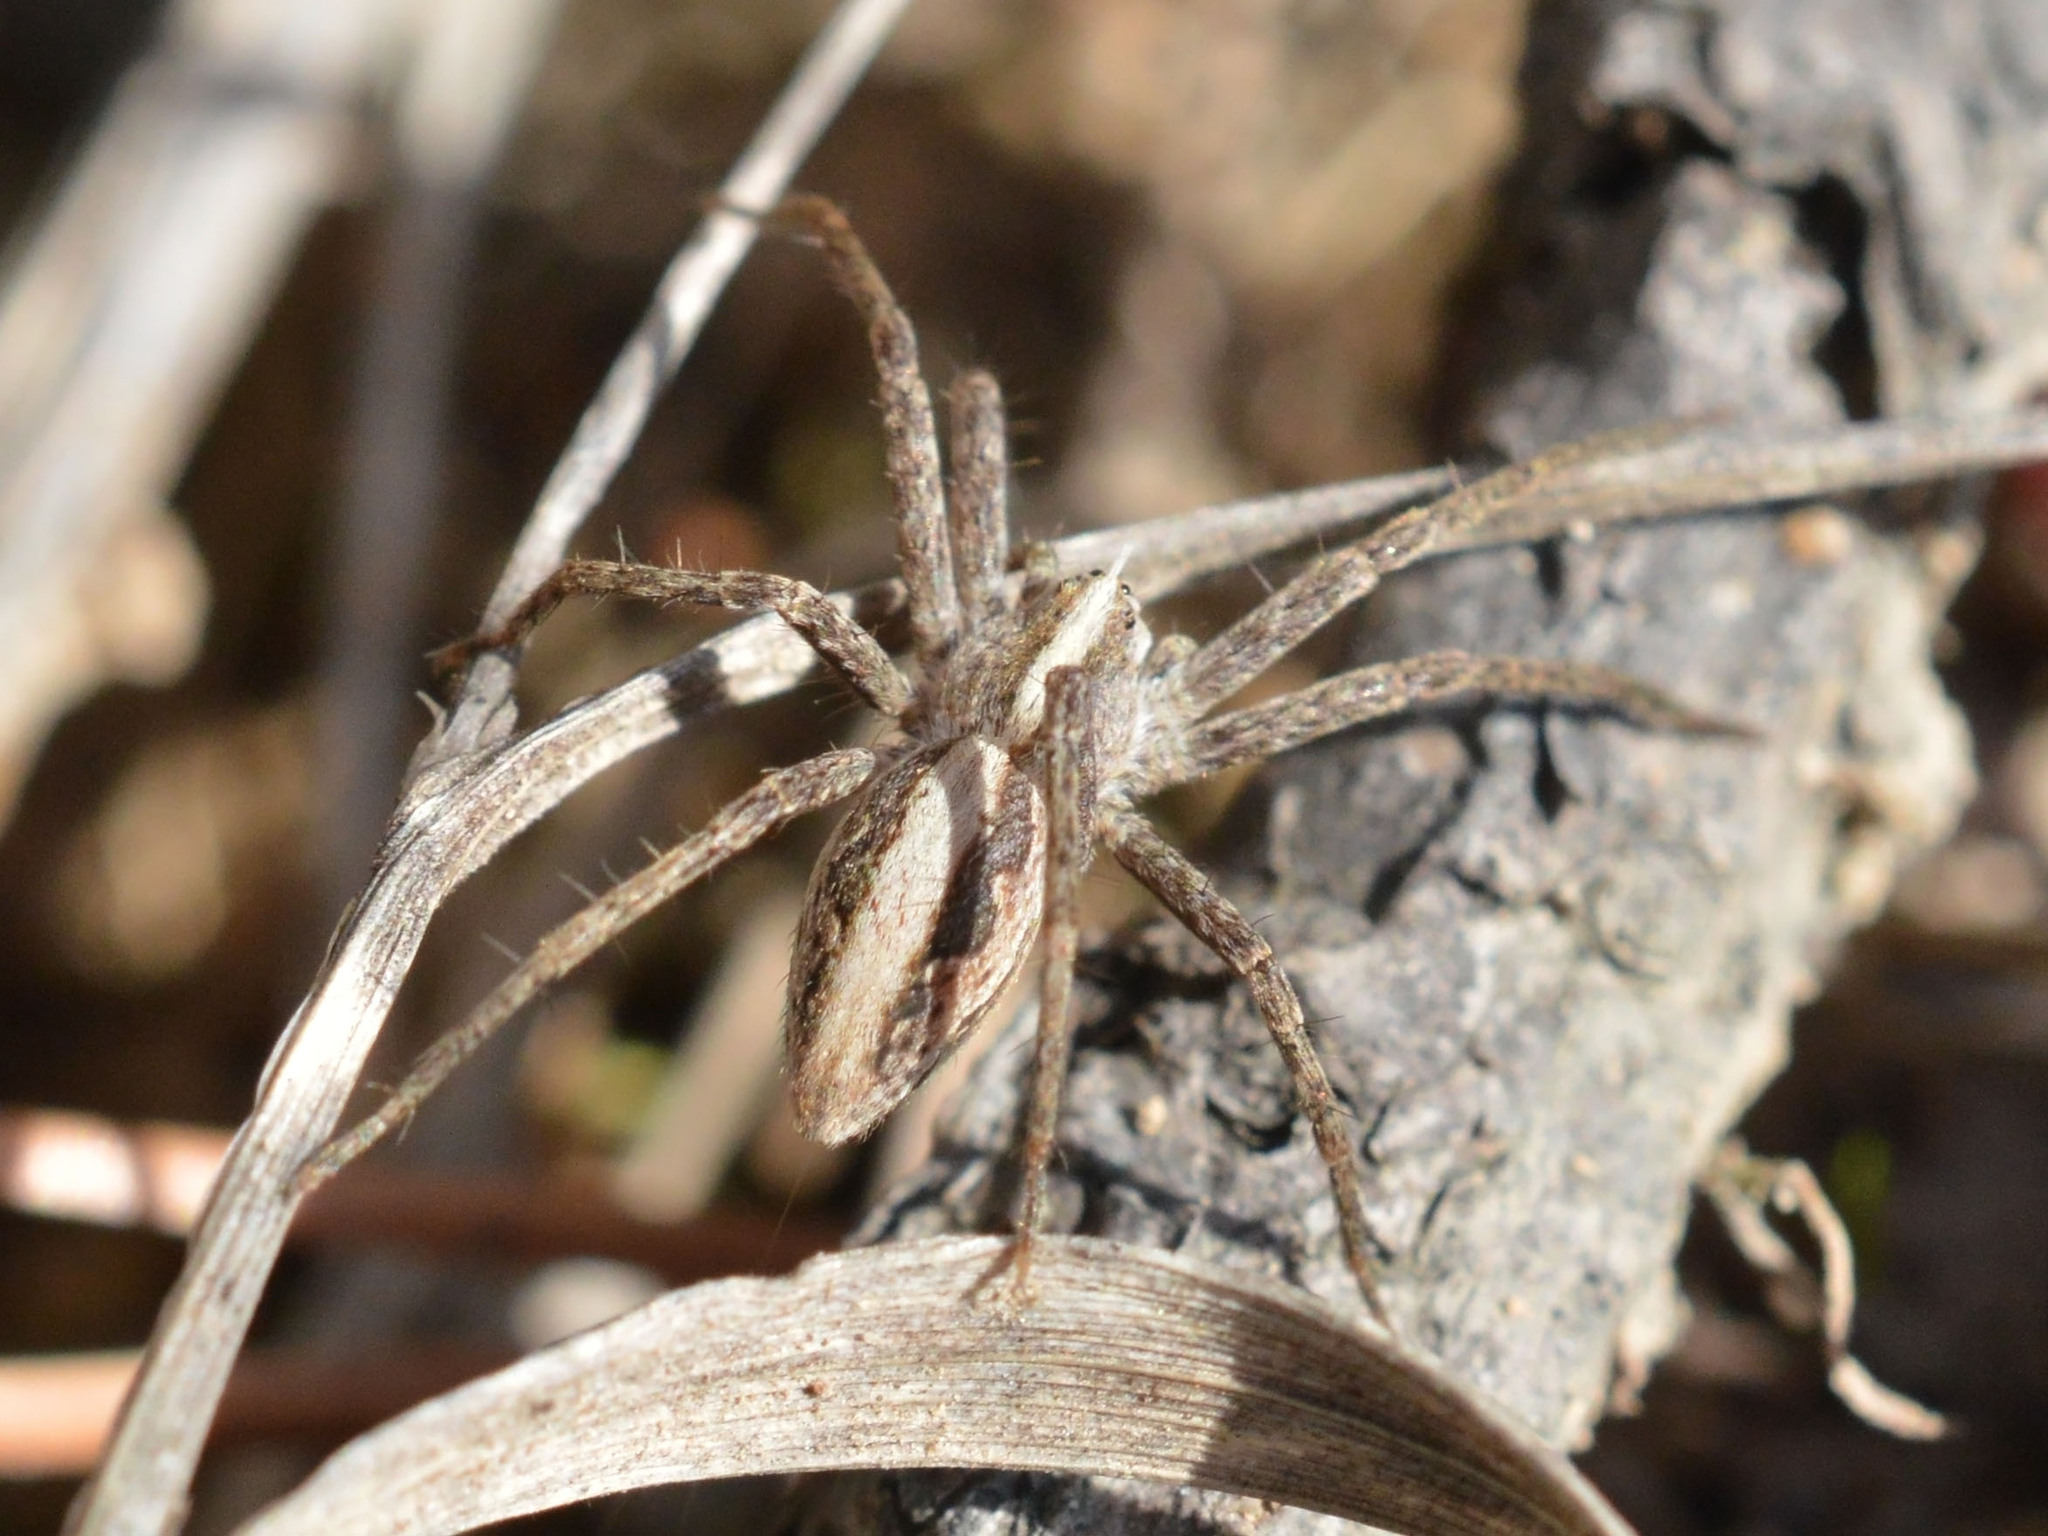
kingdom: Animalia
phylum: Arthropoda
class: Arachnida
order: Araneae
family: Pisauridae
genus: Pisaura
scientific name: Pisaura
